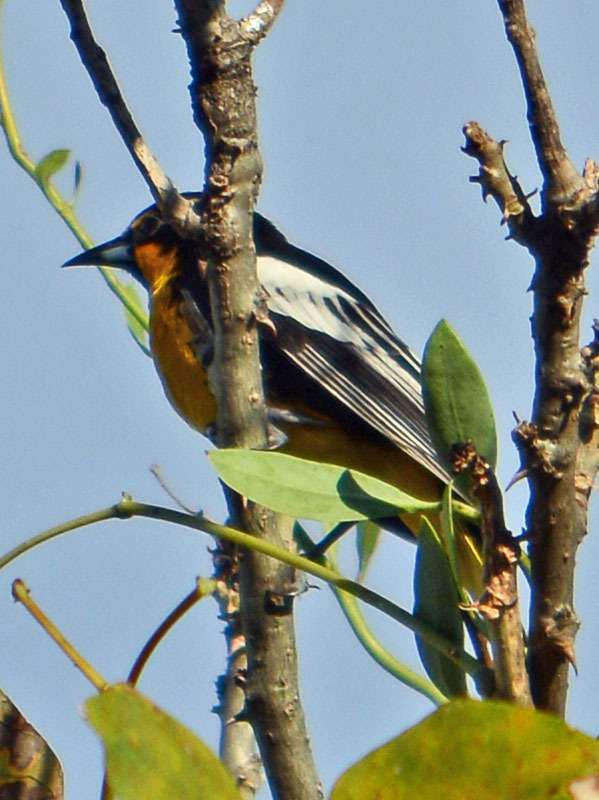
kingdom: Animalia
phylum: Chordata
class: Aves
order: Passeriformes
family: Icteridae
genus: Icterus
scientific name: Icterus abeillei
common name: Black-backed oriole
